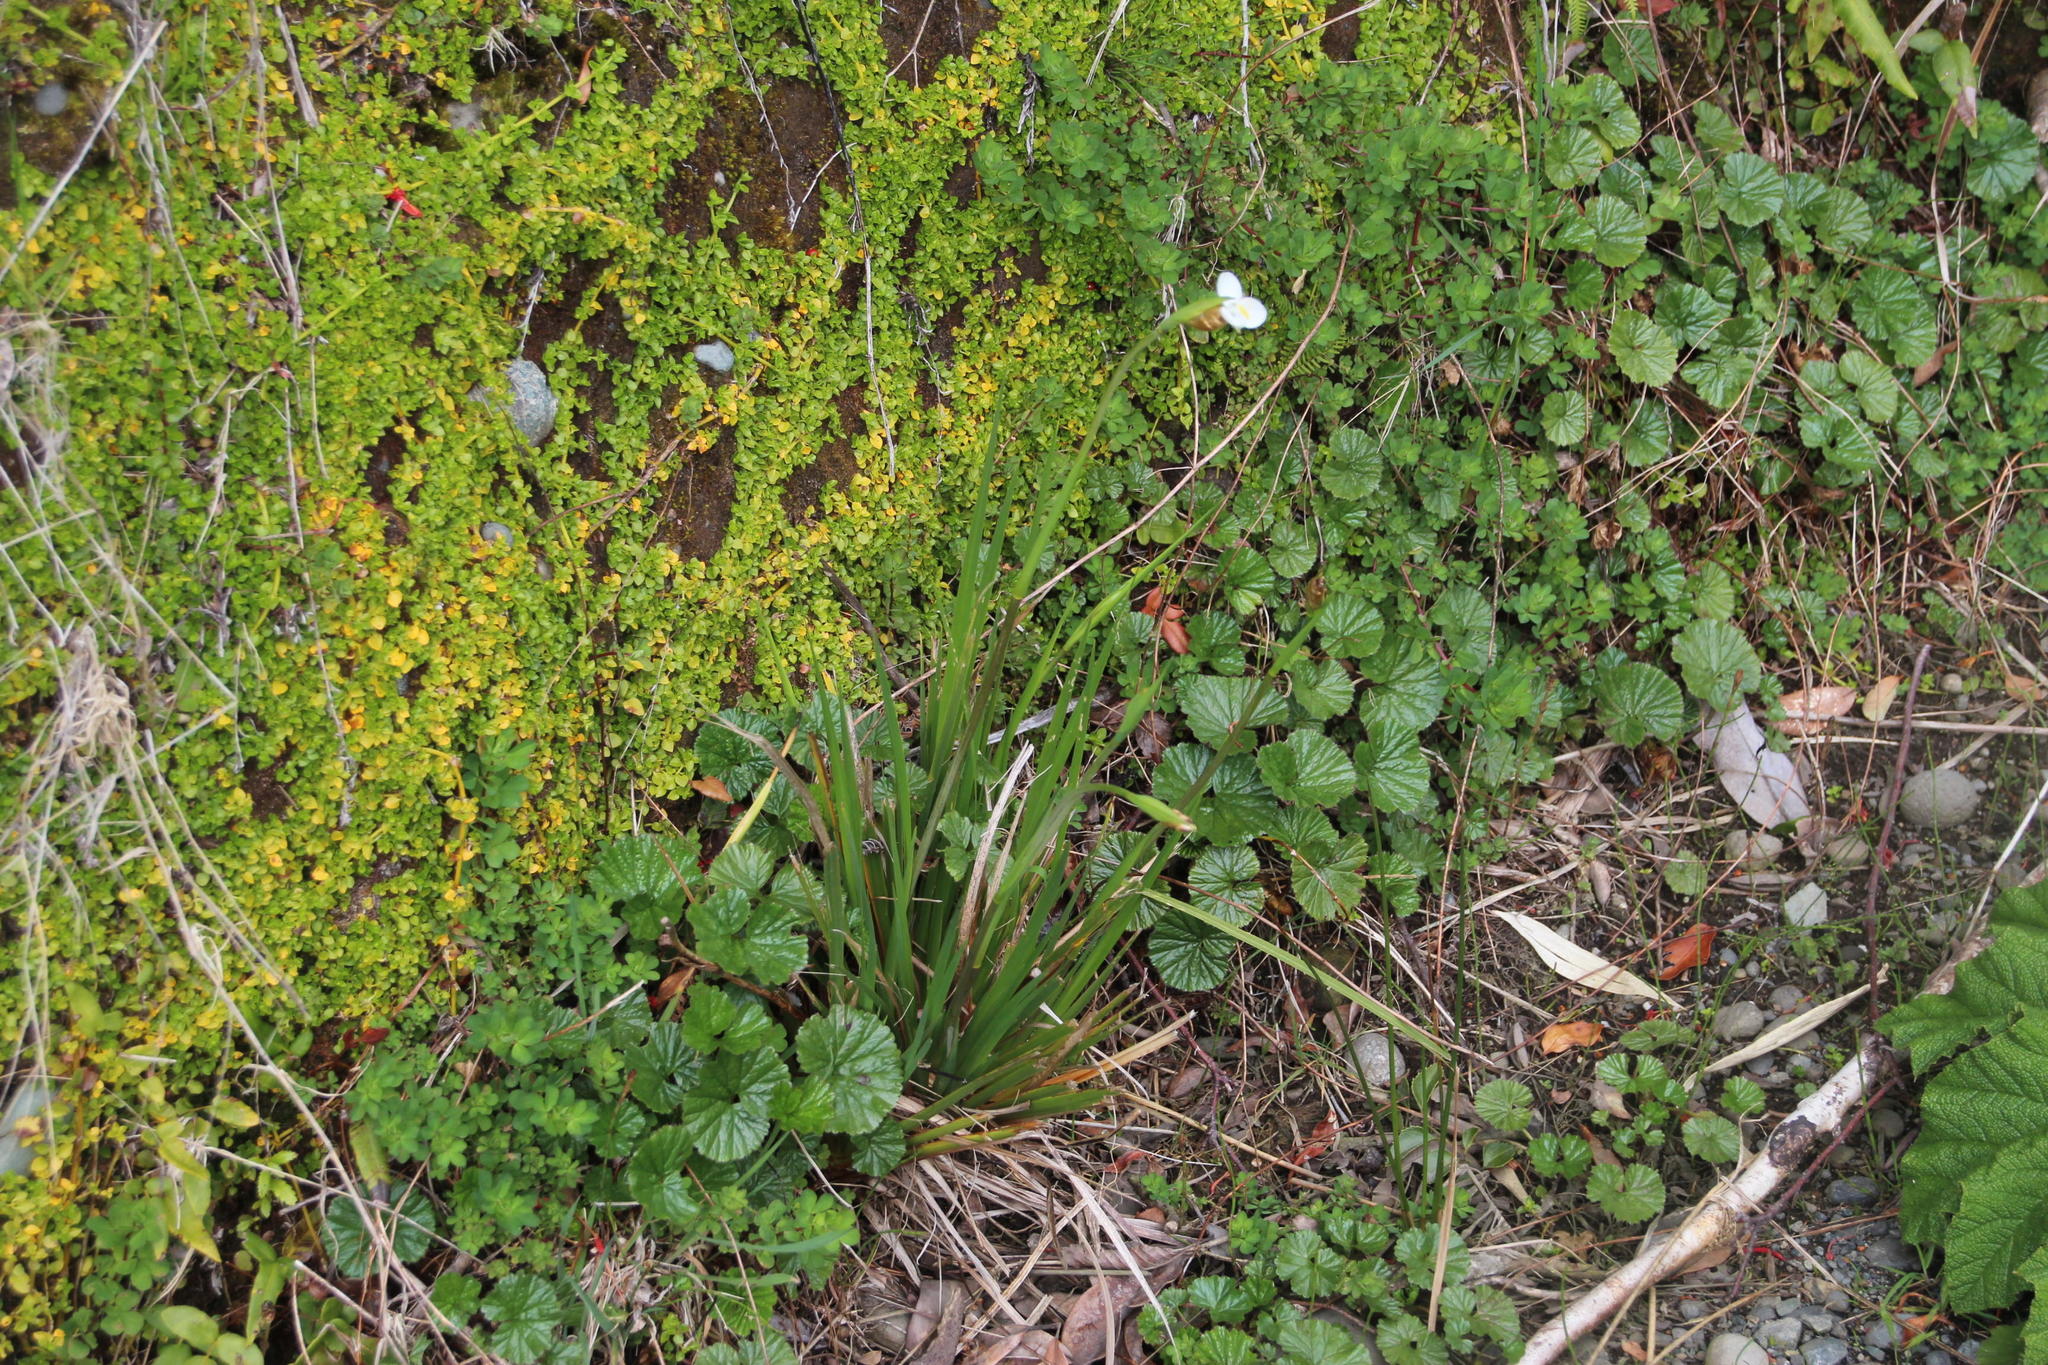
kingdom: Plantae
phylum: Tracheophyta
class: Liliopsida
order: Asparagales
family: Iridaceae
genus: Libertia
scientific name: Libertia chilensis
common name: Satin flower
